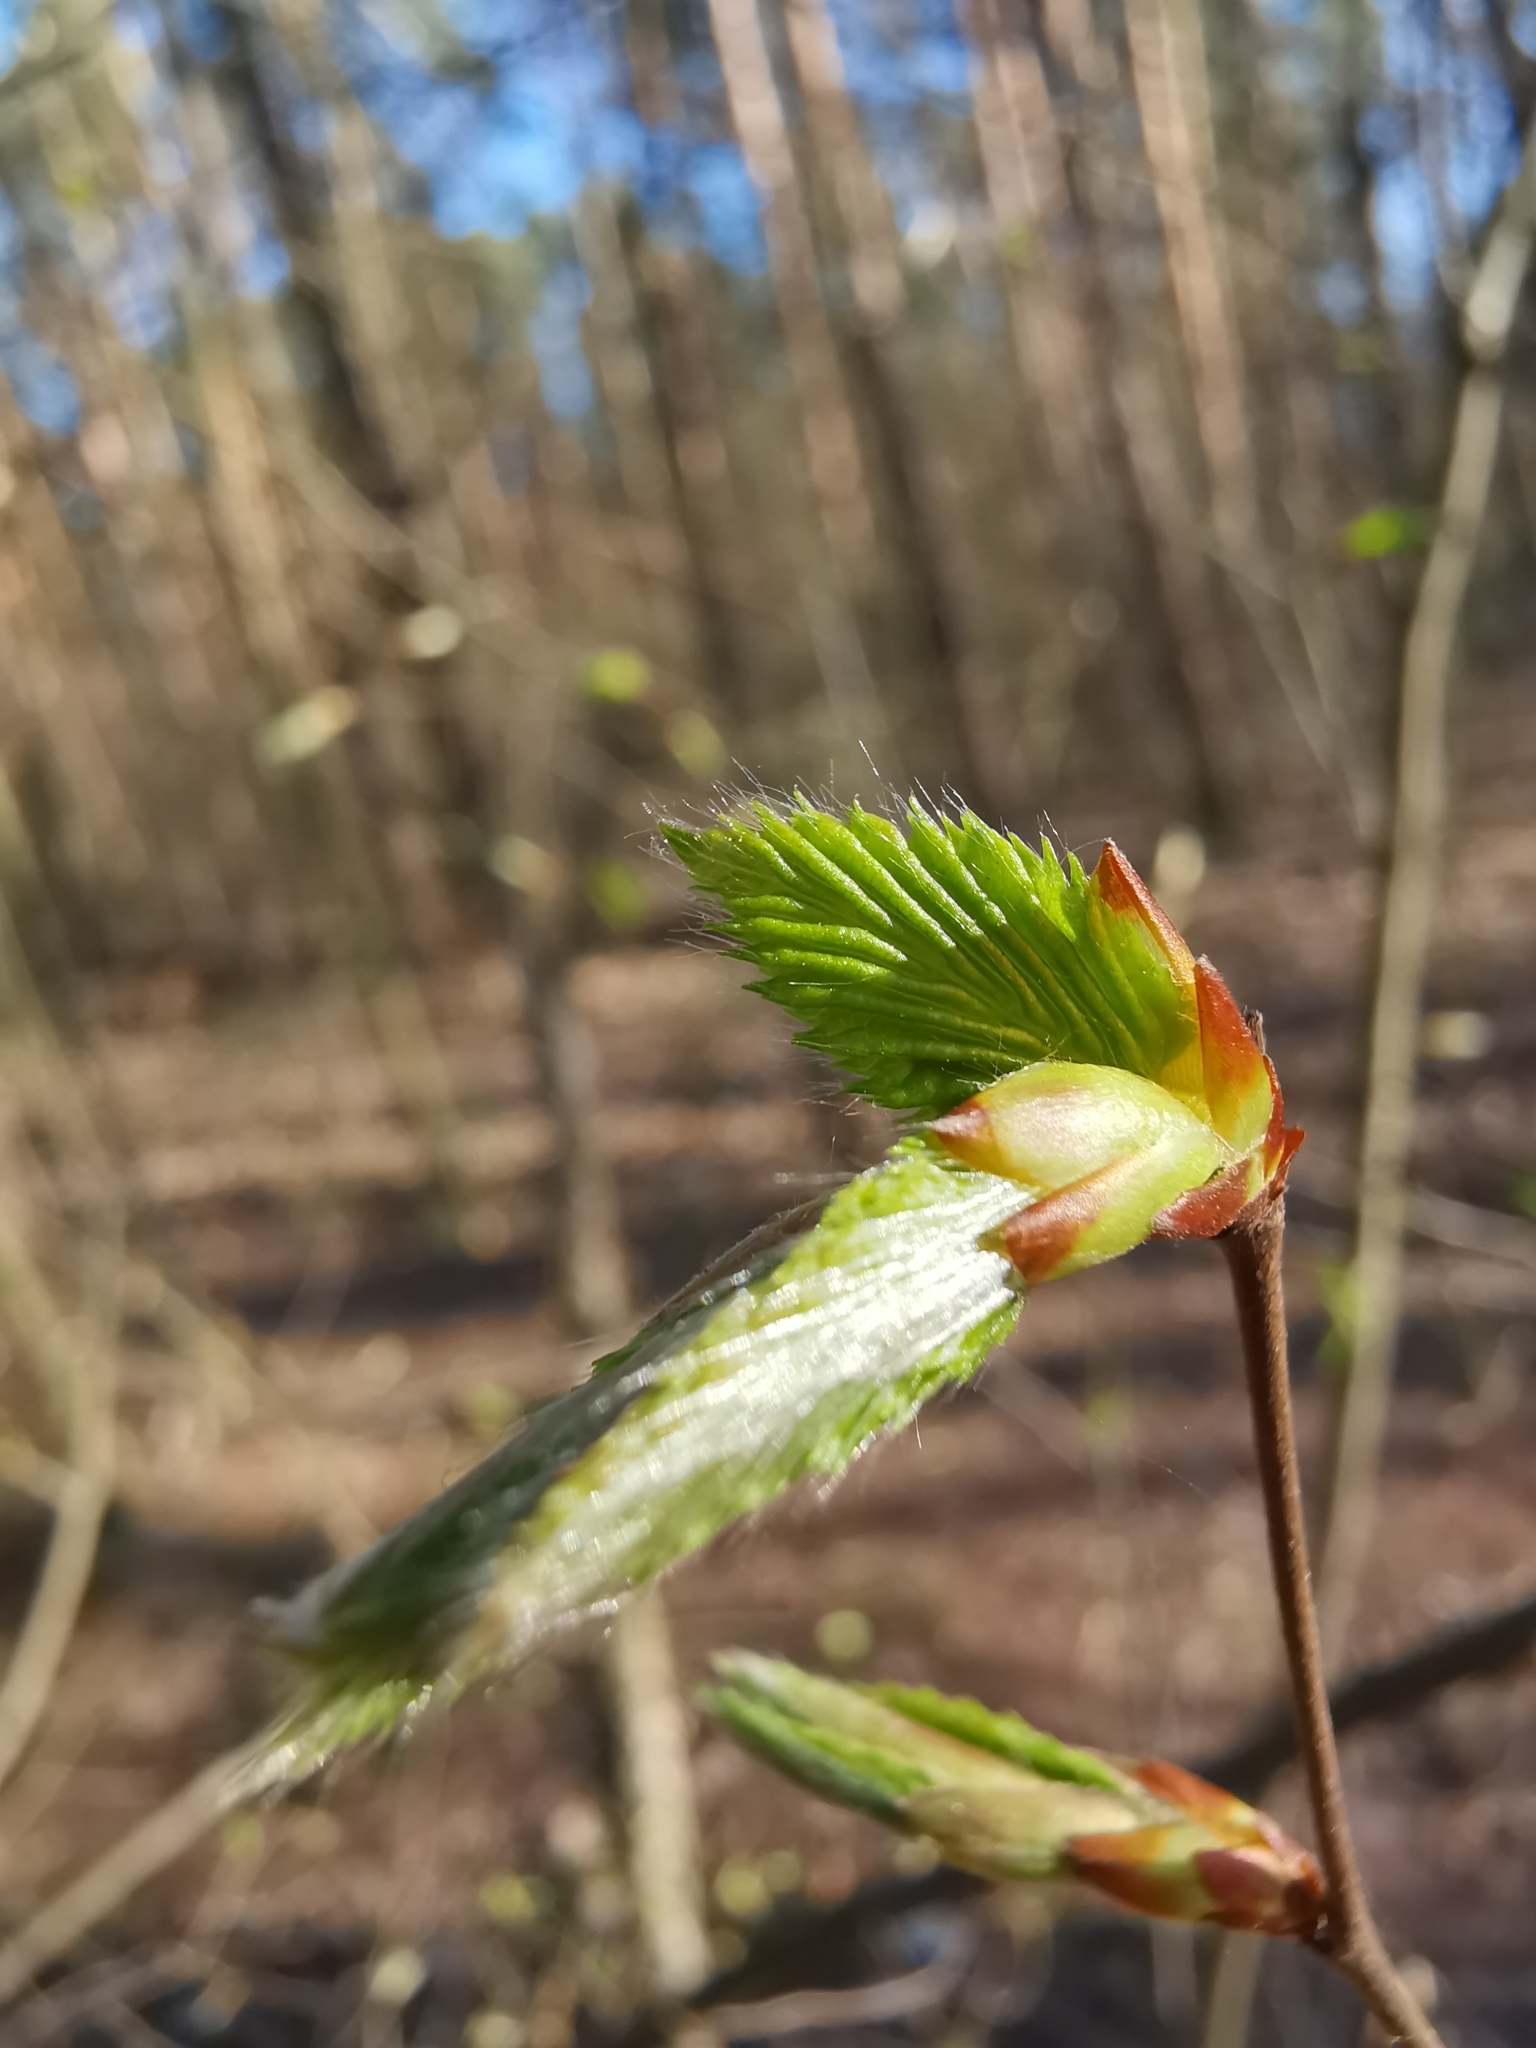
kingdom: Plantae
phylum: Tracheophyta
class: Magnoliopsida
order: Fagales
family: Betulaceae
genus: Carpinus
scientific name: Carpinus betulus
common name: Hornbeam
